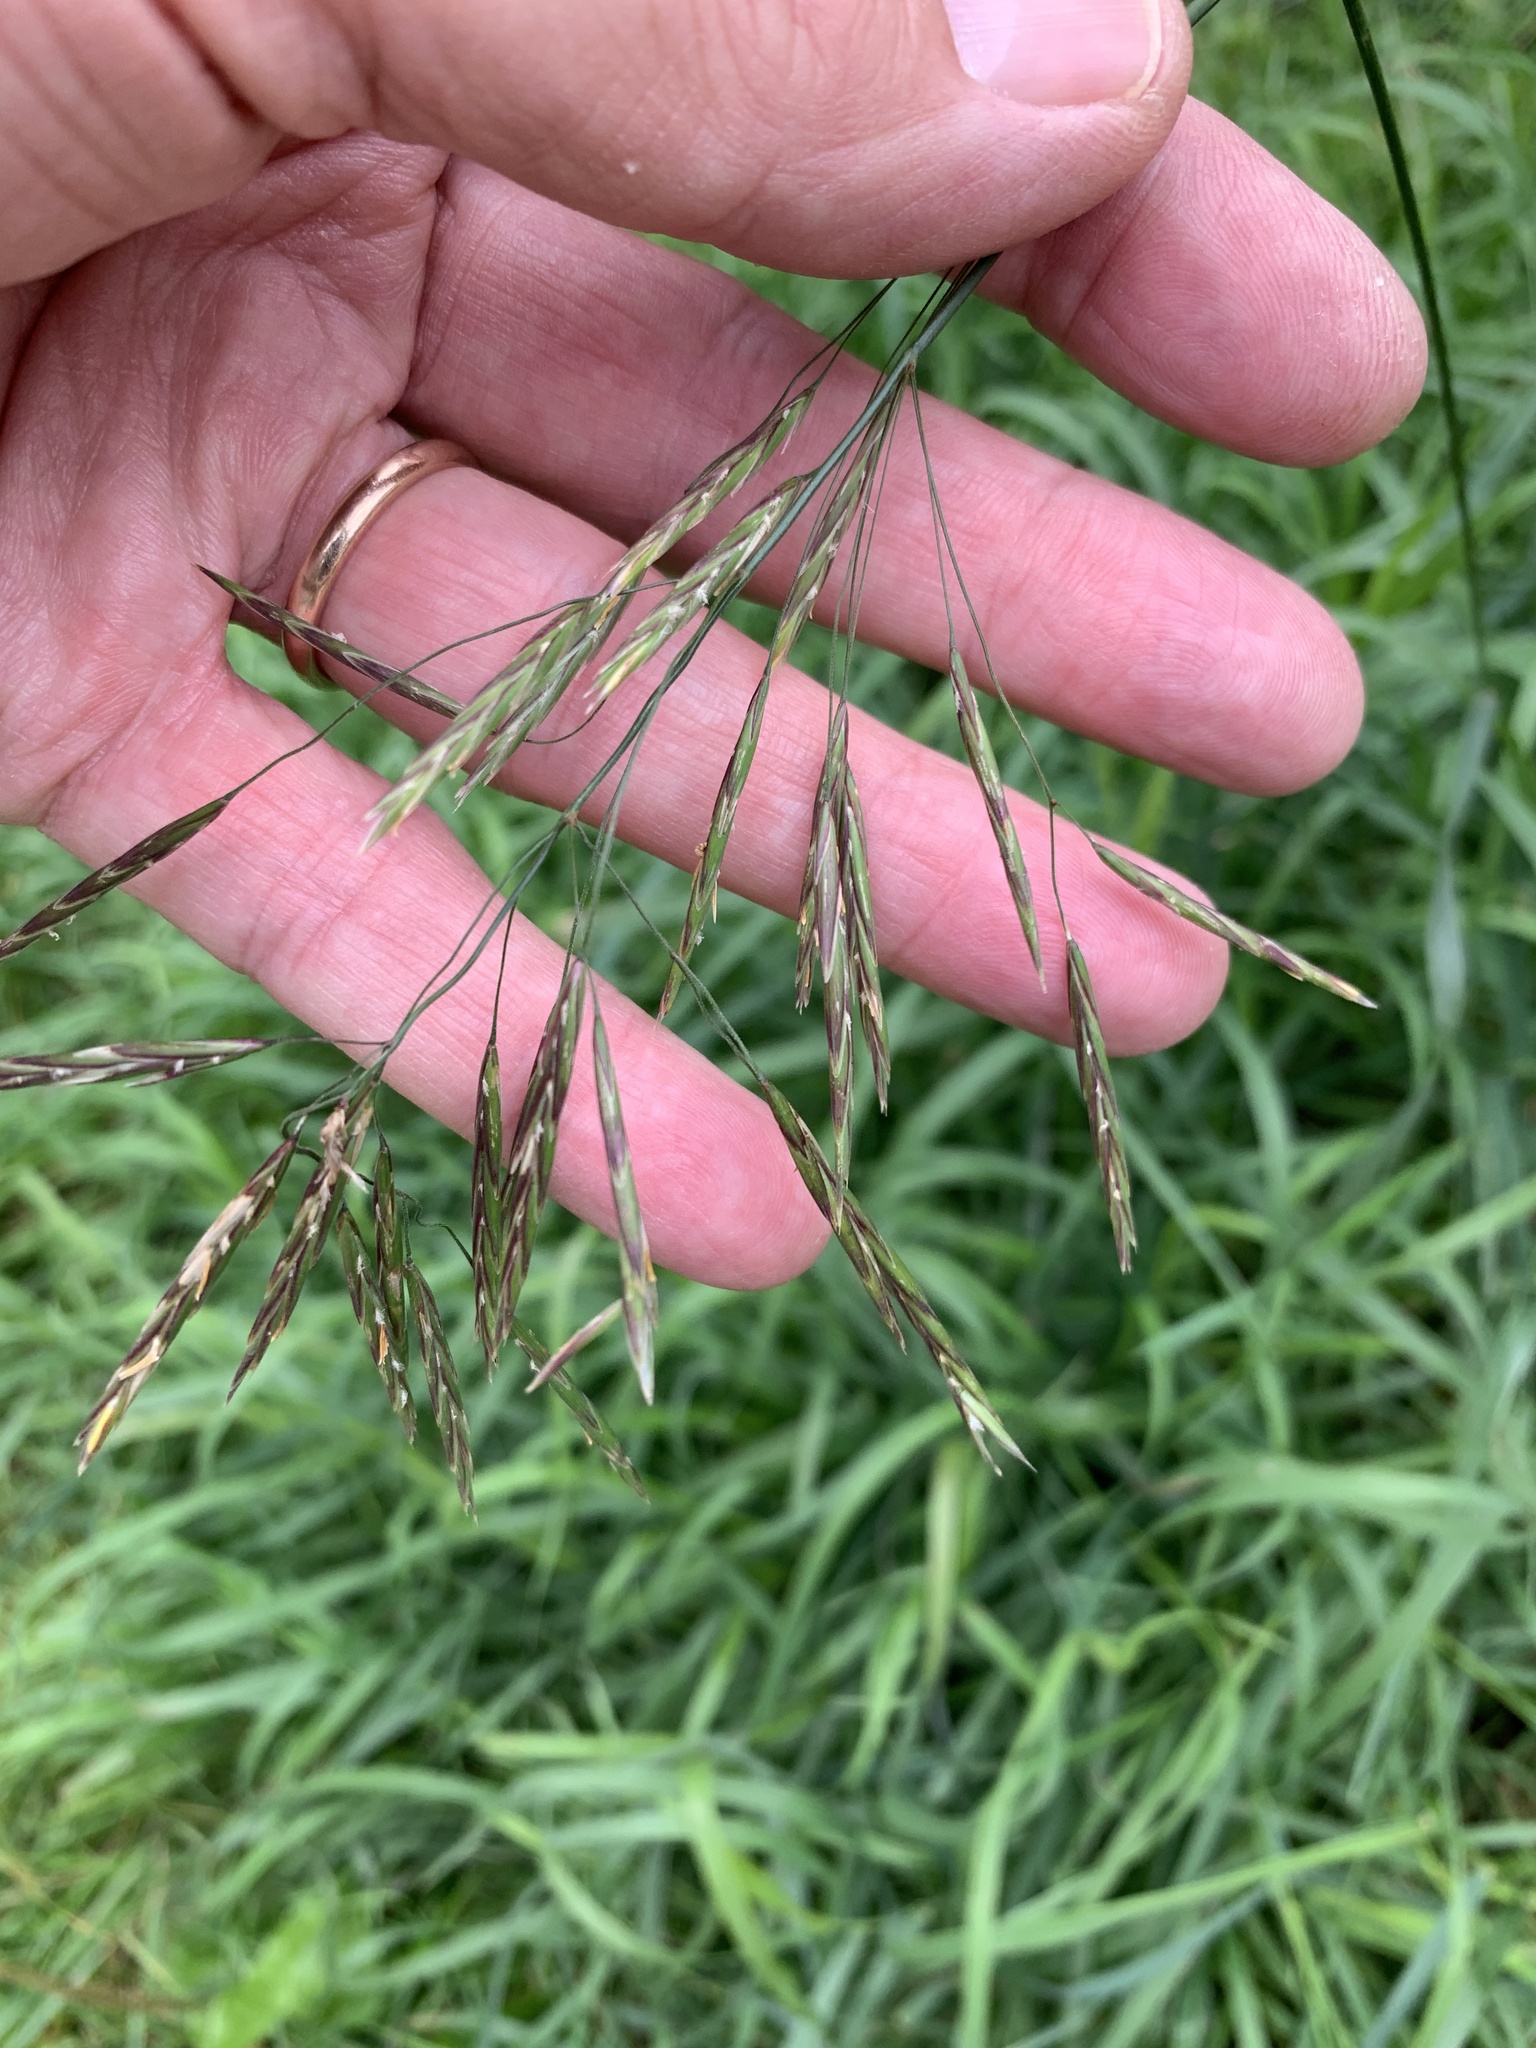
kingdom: Plantae
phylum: Tracheophyta
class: Liliopsida
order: Poales
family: Poaceae
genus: Bromus
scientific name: Bromus inermis
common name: Smooth brome
